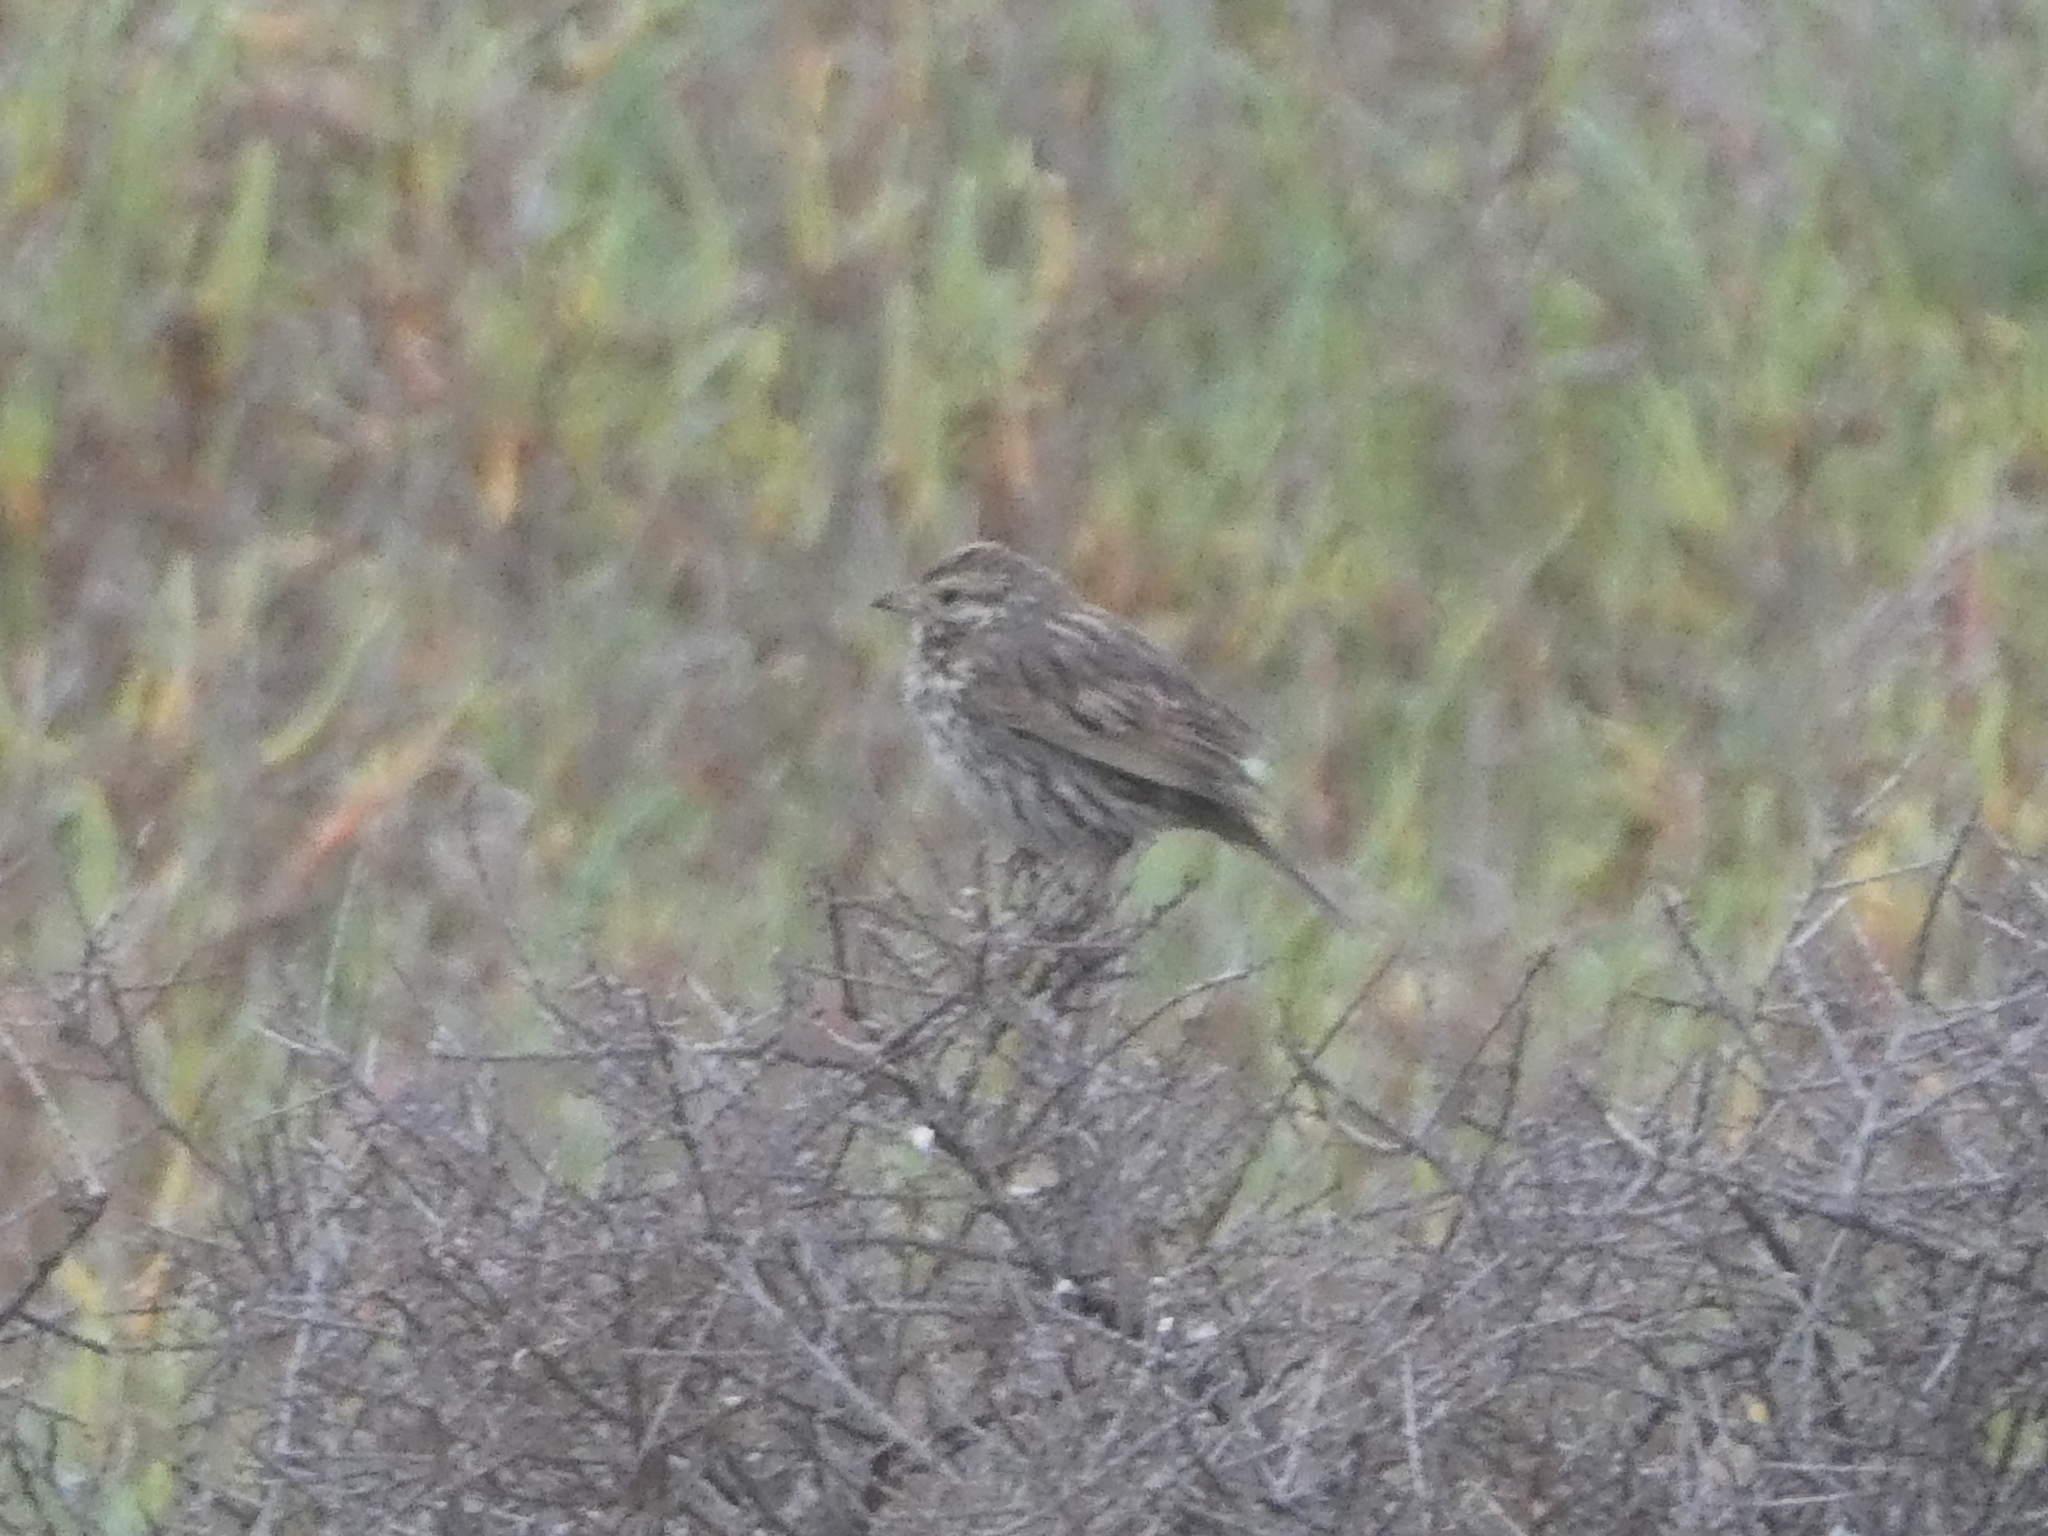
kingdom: Animalia
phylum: Chordata
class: Aves
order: Passeriformes
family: Passerellidae
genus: Melospiza
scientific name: Melospiza melodia
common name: Song sparrow
